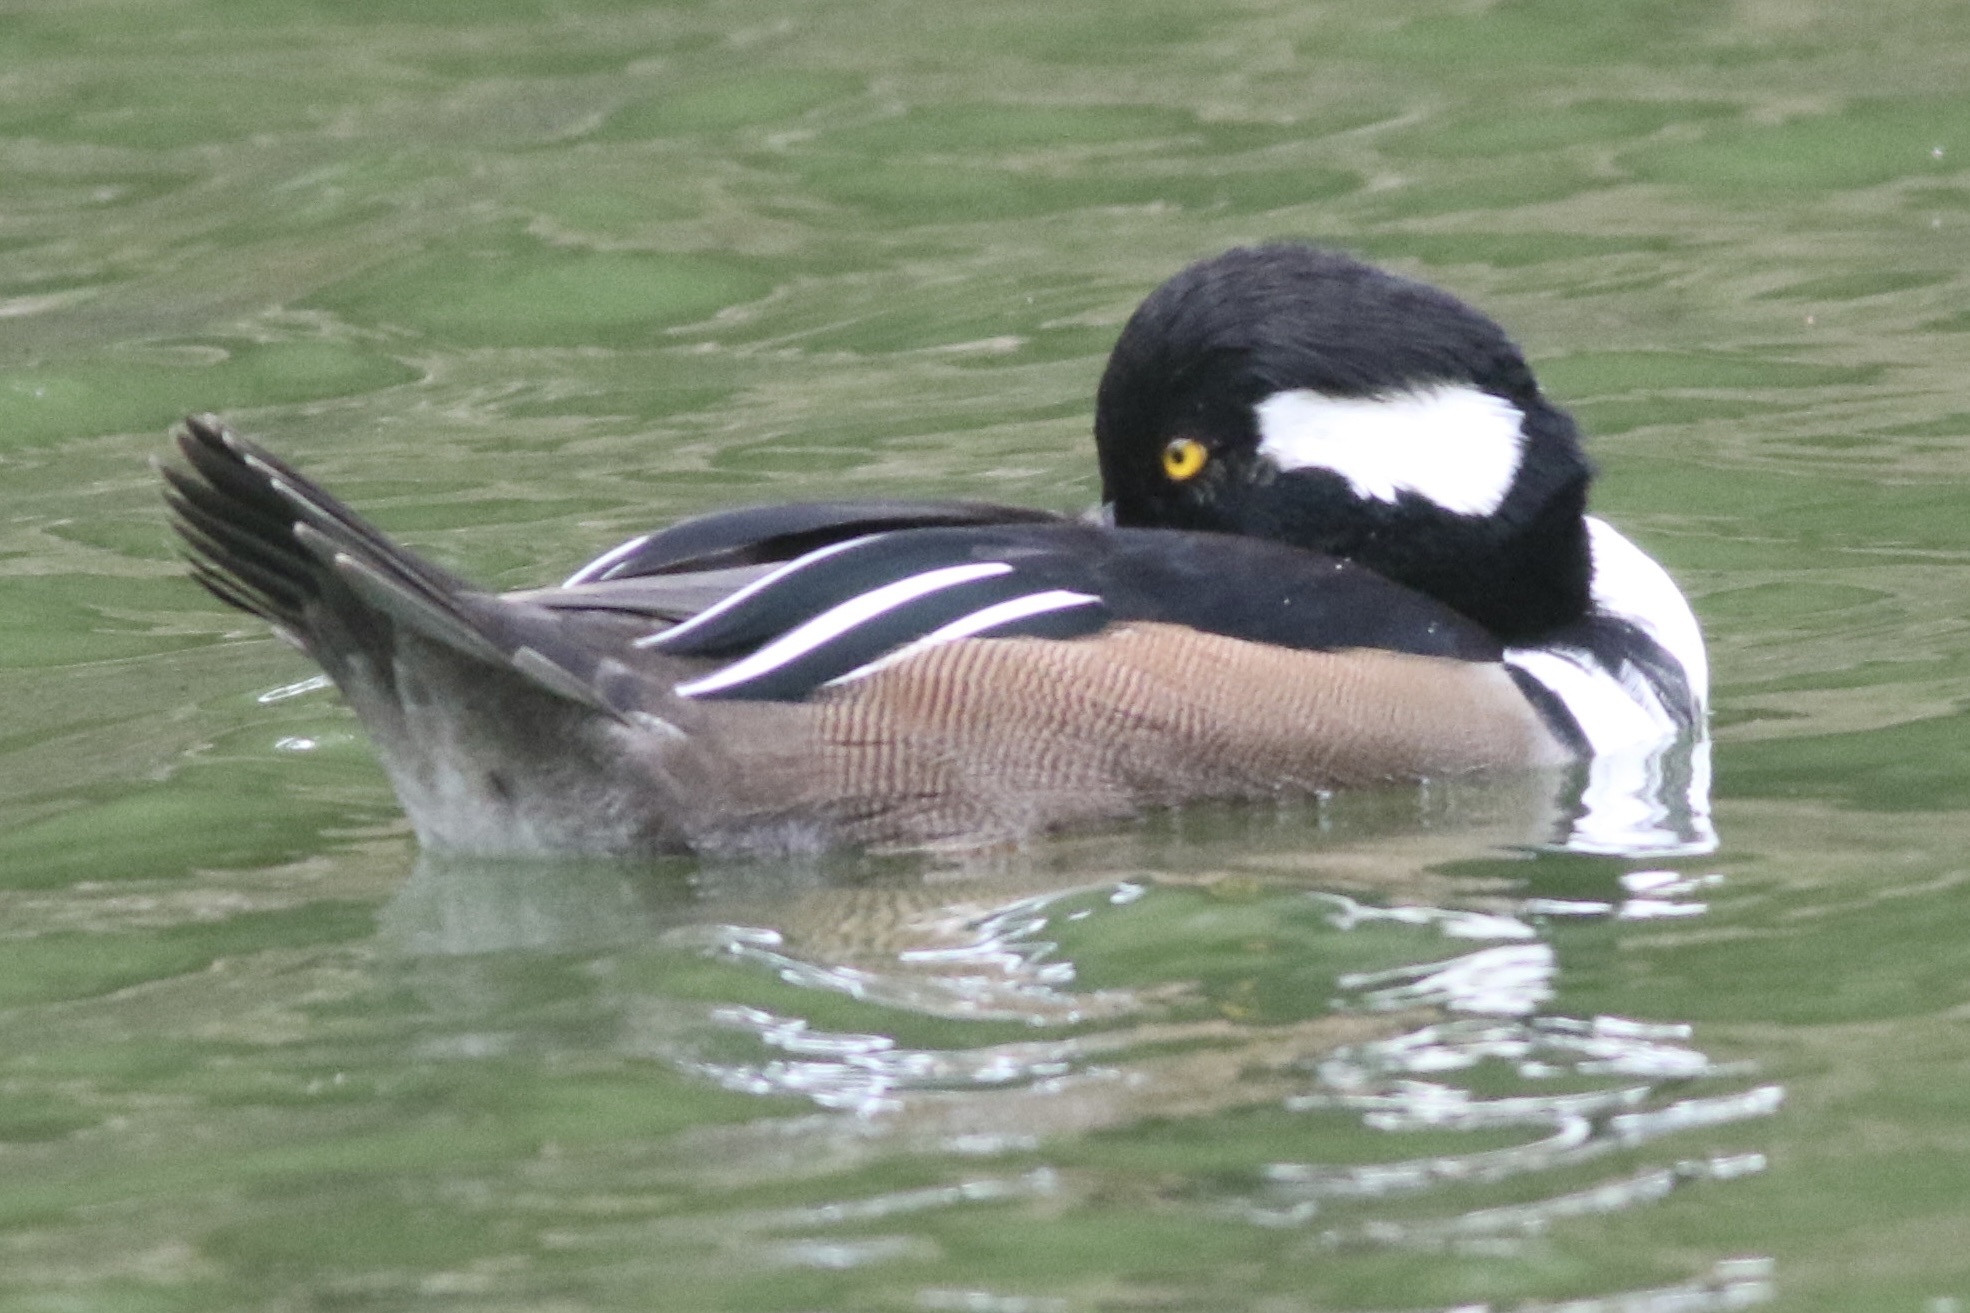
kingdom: Animalia
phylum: Chordata
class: Aves
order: Anseriformes
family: Anatidae
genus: Lophodytes
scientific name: Lophodytes cucullatus
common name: Hooded merganser
